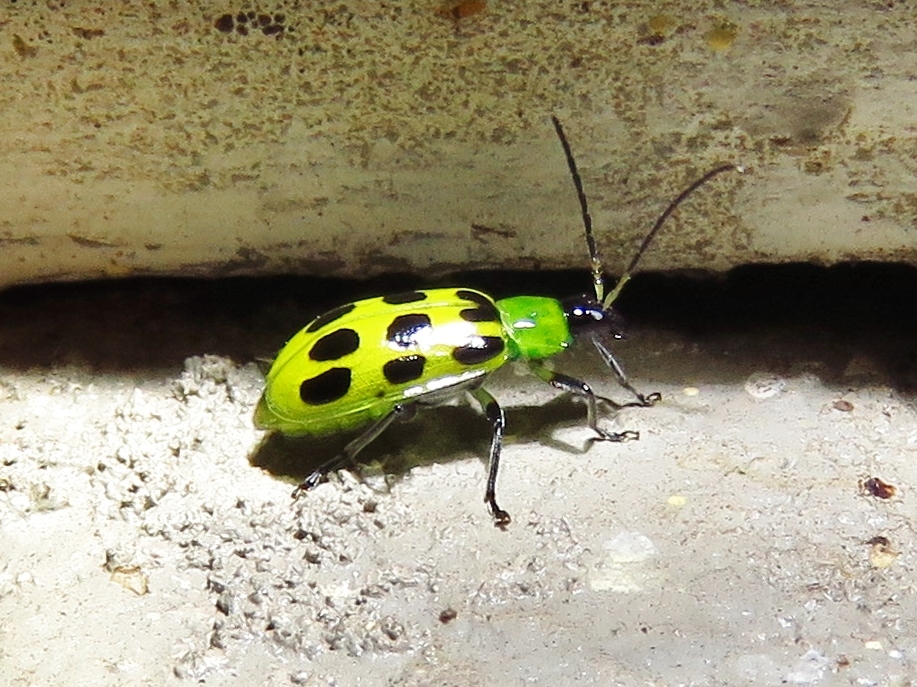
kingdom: Animalia
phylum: Arthropoda
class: Insecta
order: Coleoptera
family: Chrysomelidae
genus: Diabrotica
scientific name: Diabrotica undecimpunctata
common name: Spotted cucumber beetle
